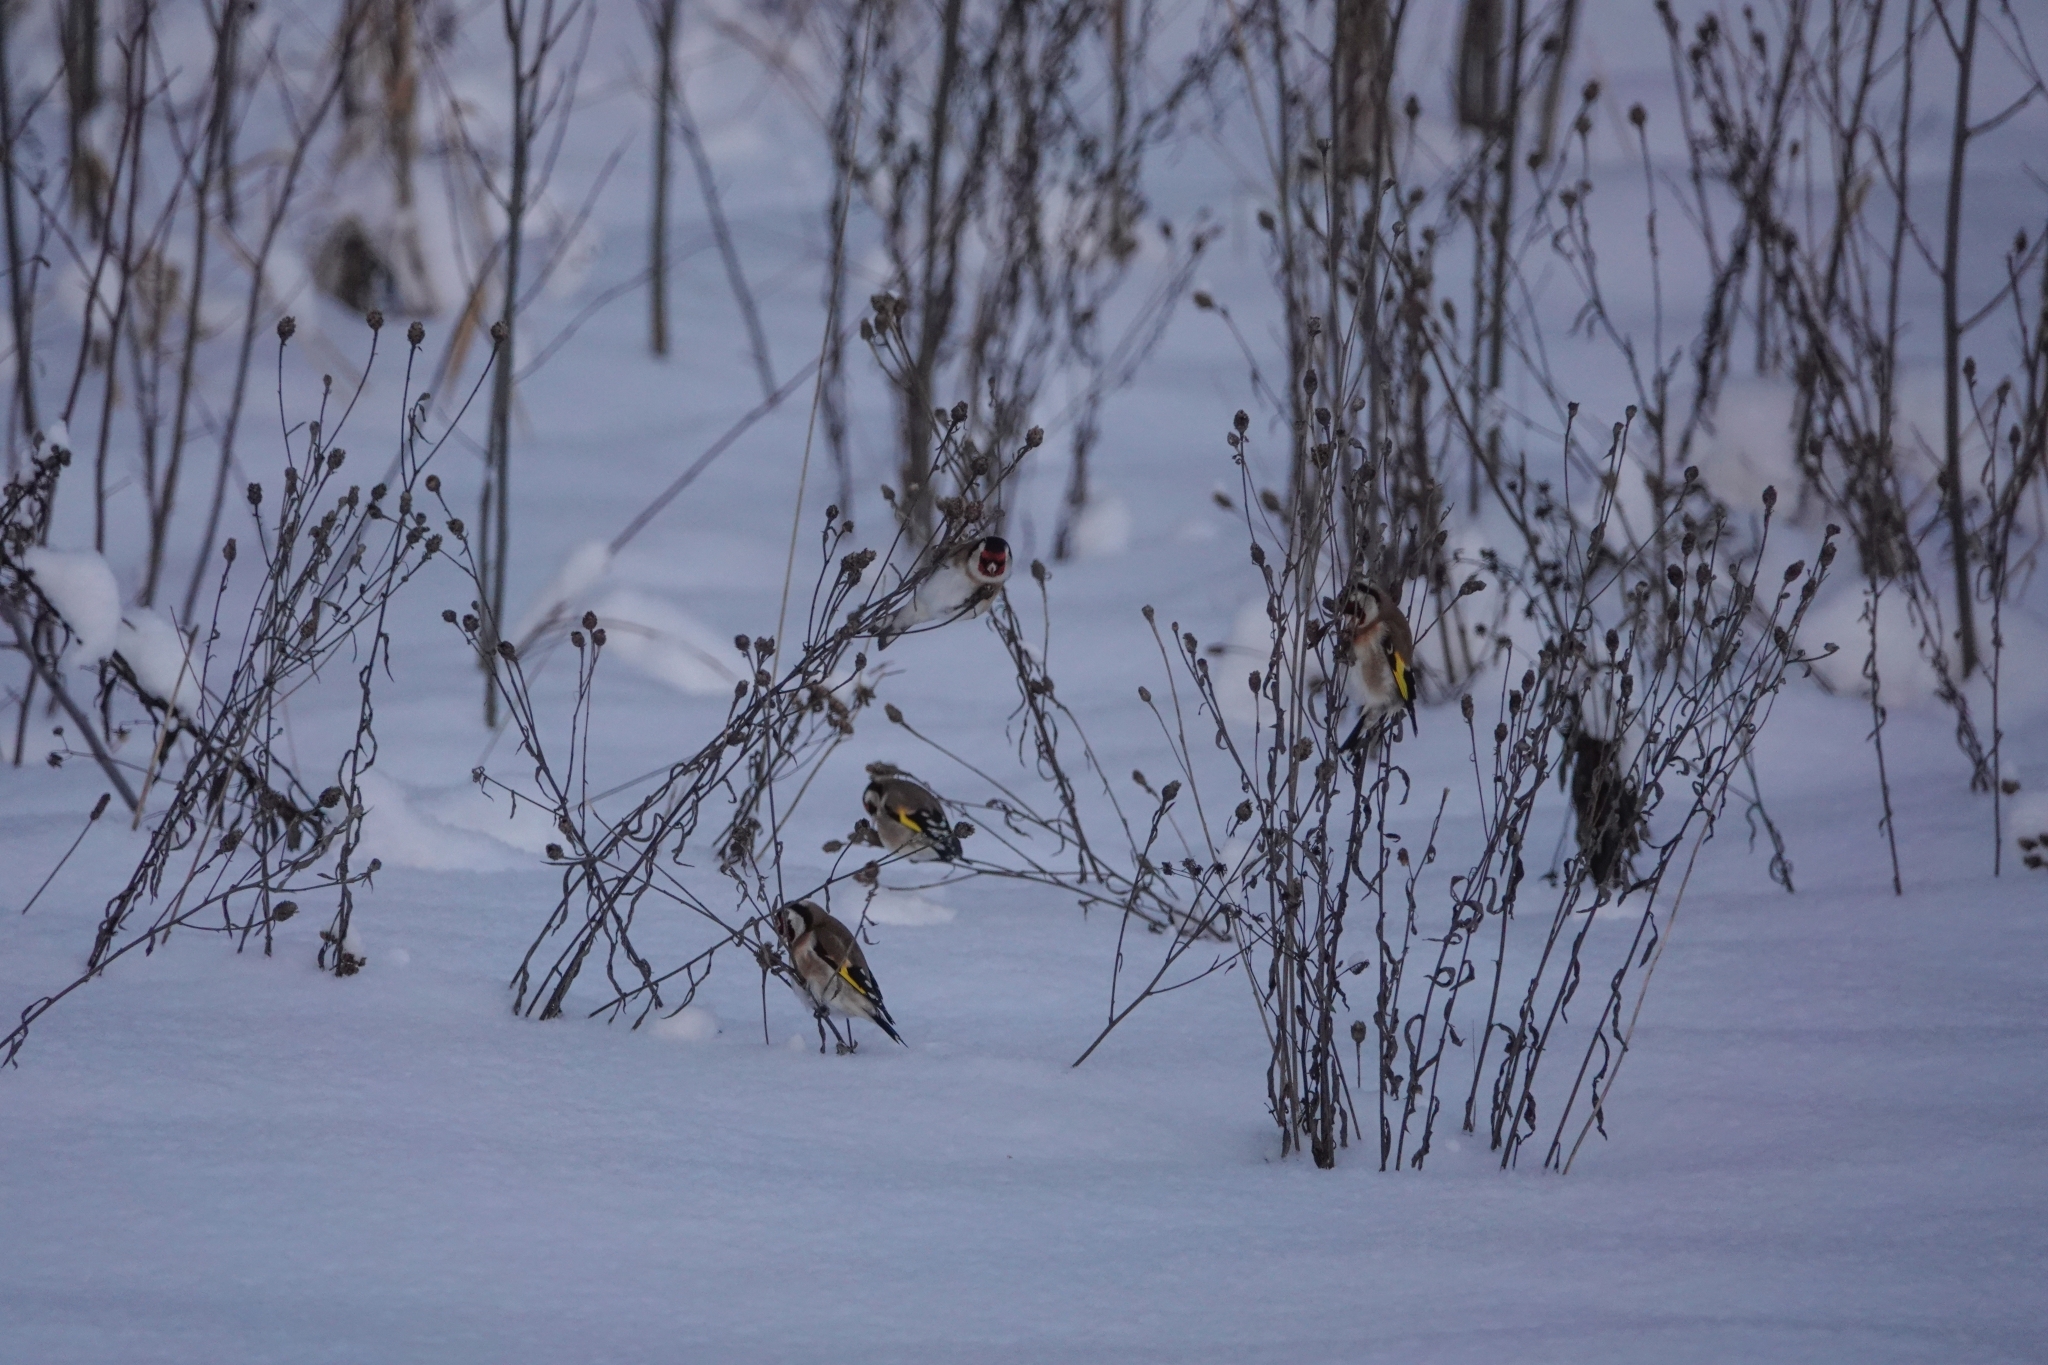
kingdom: Animalia
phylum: Chordata
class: Aves
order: Passeriformes
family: Fringillidae
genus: Carduelis
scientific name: Carduelis carduelis
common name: European goldfinch
